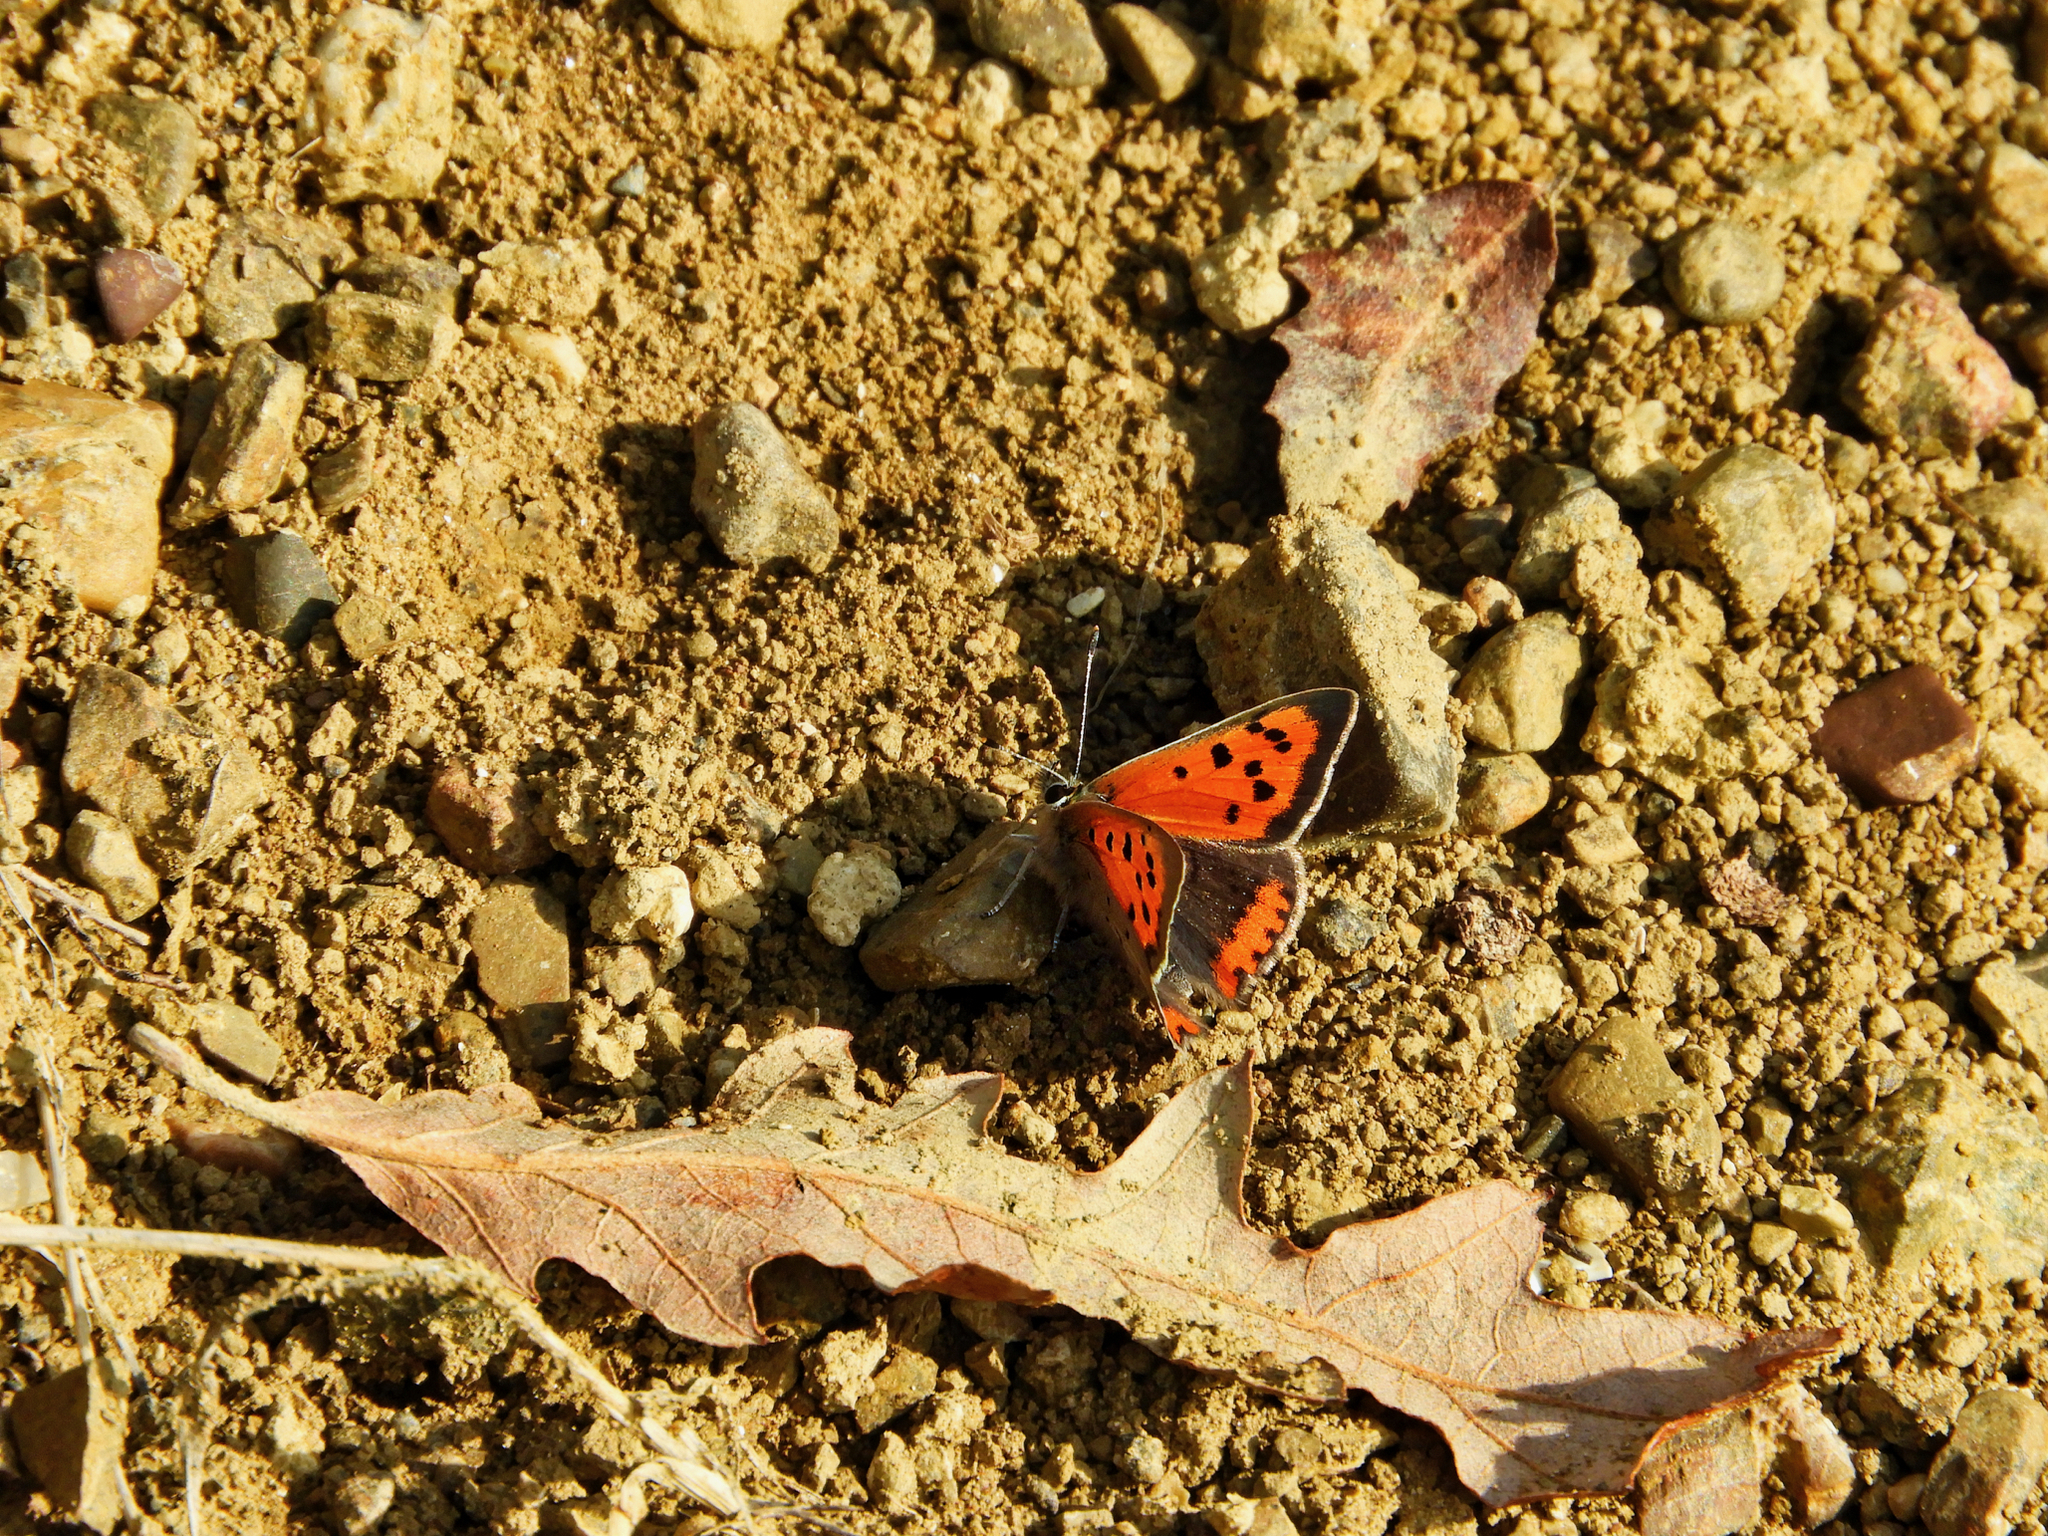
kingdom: Animalia
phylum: Arthropoda
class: Insecta
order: Lepidoptera
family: Lycaenidae
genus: Lycaena
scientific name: Lycaena phlaeas
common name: Small copper
